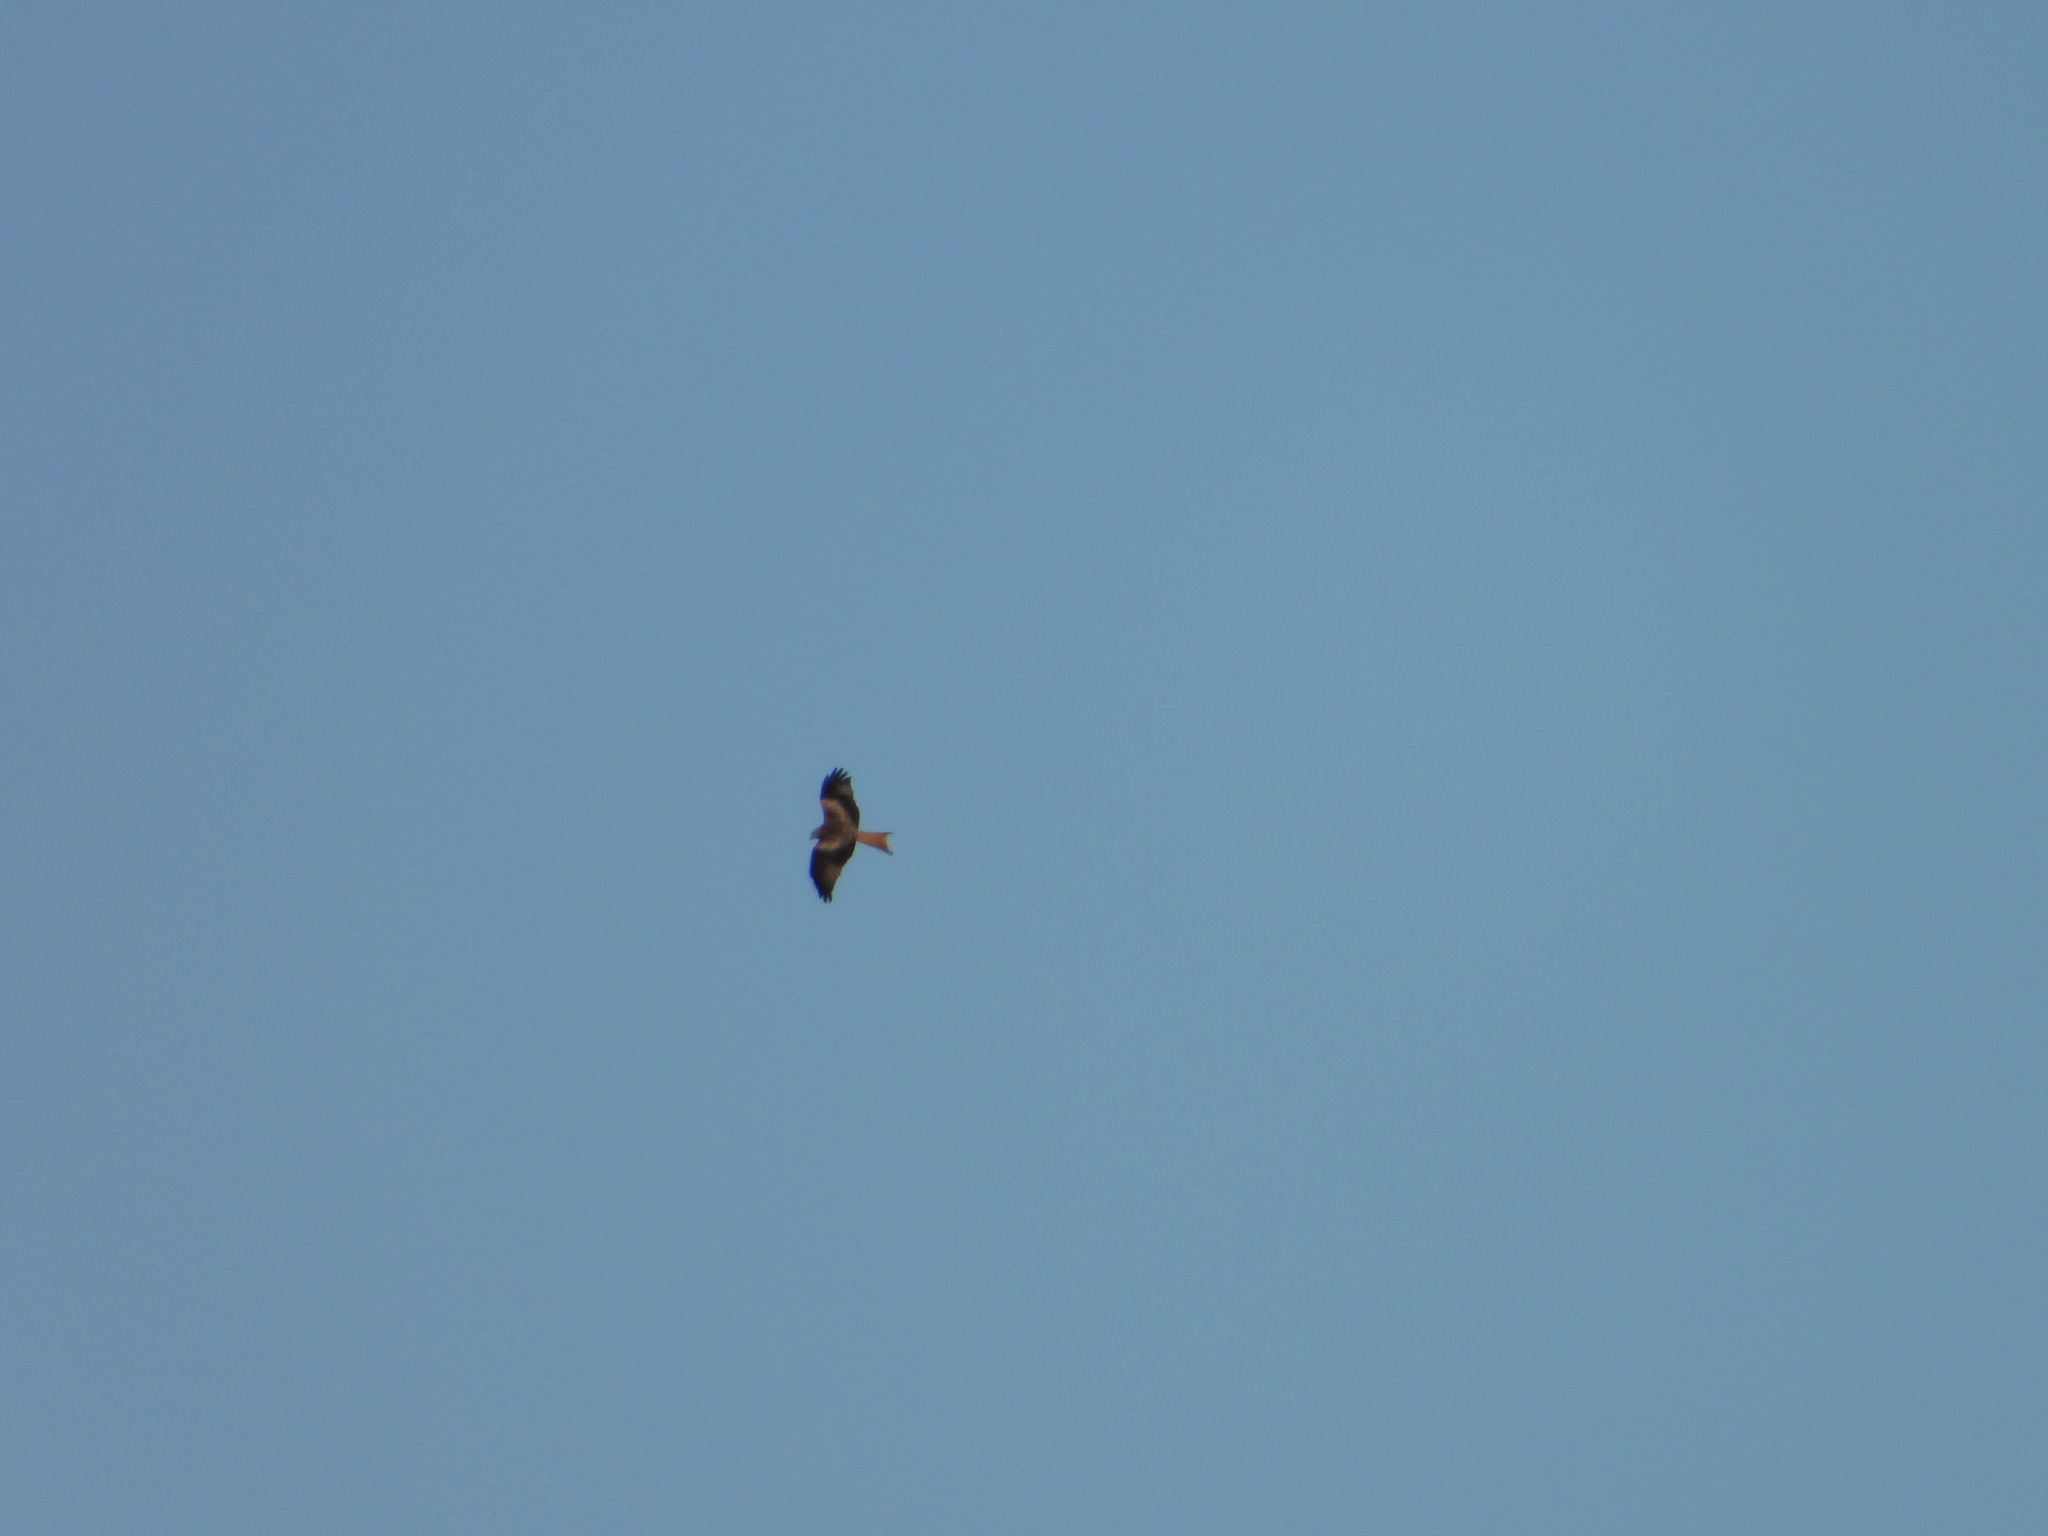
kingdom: Animalia
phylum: Chordata
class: Aves
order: Accipitriformes
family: Accipitridae
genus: Milvus
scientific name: Milvus milvus
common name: Red kite
